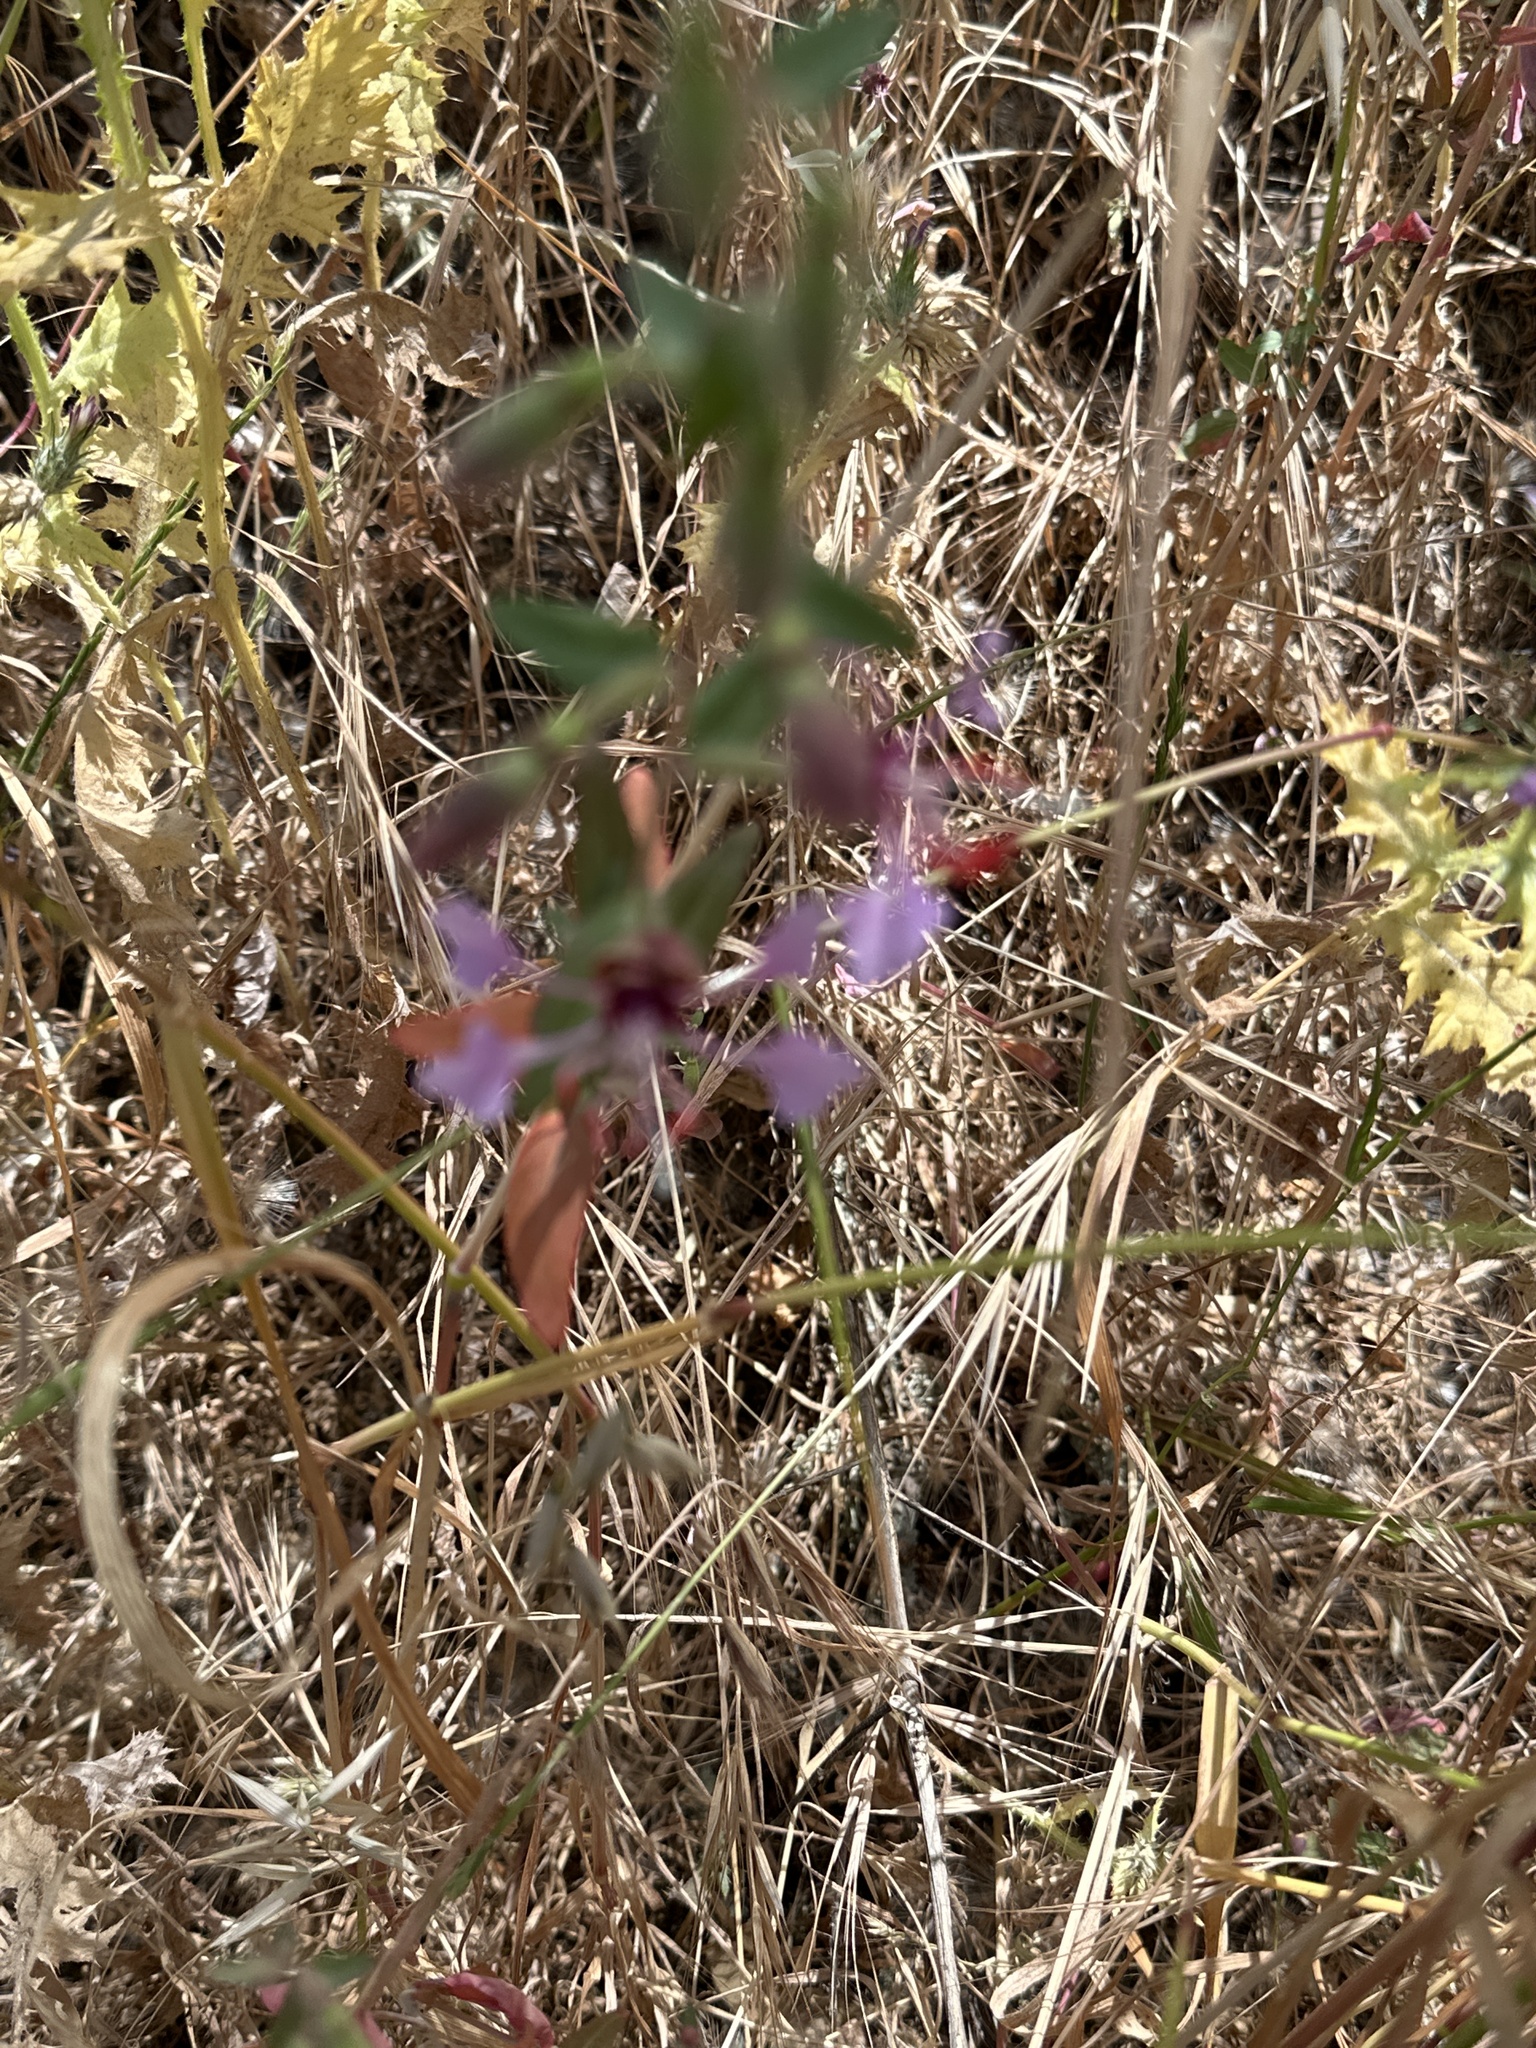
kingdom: Plantae
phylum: Tracheophyta
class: Magnoliopsida
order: Myrtales
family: Onagraceae
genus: Clarkia
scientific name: Clarkia unguiculata
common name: Clarkia
